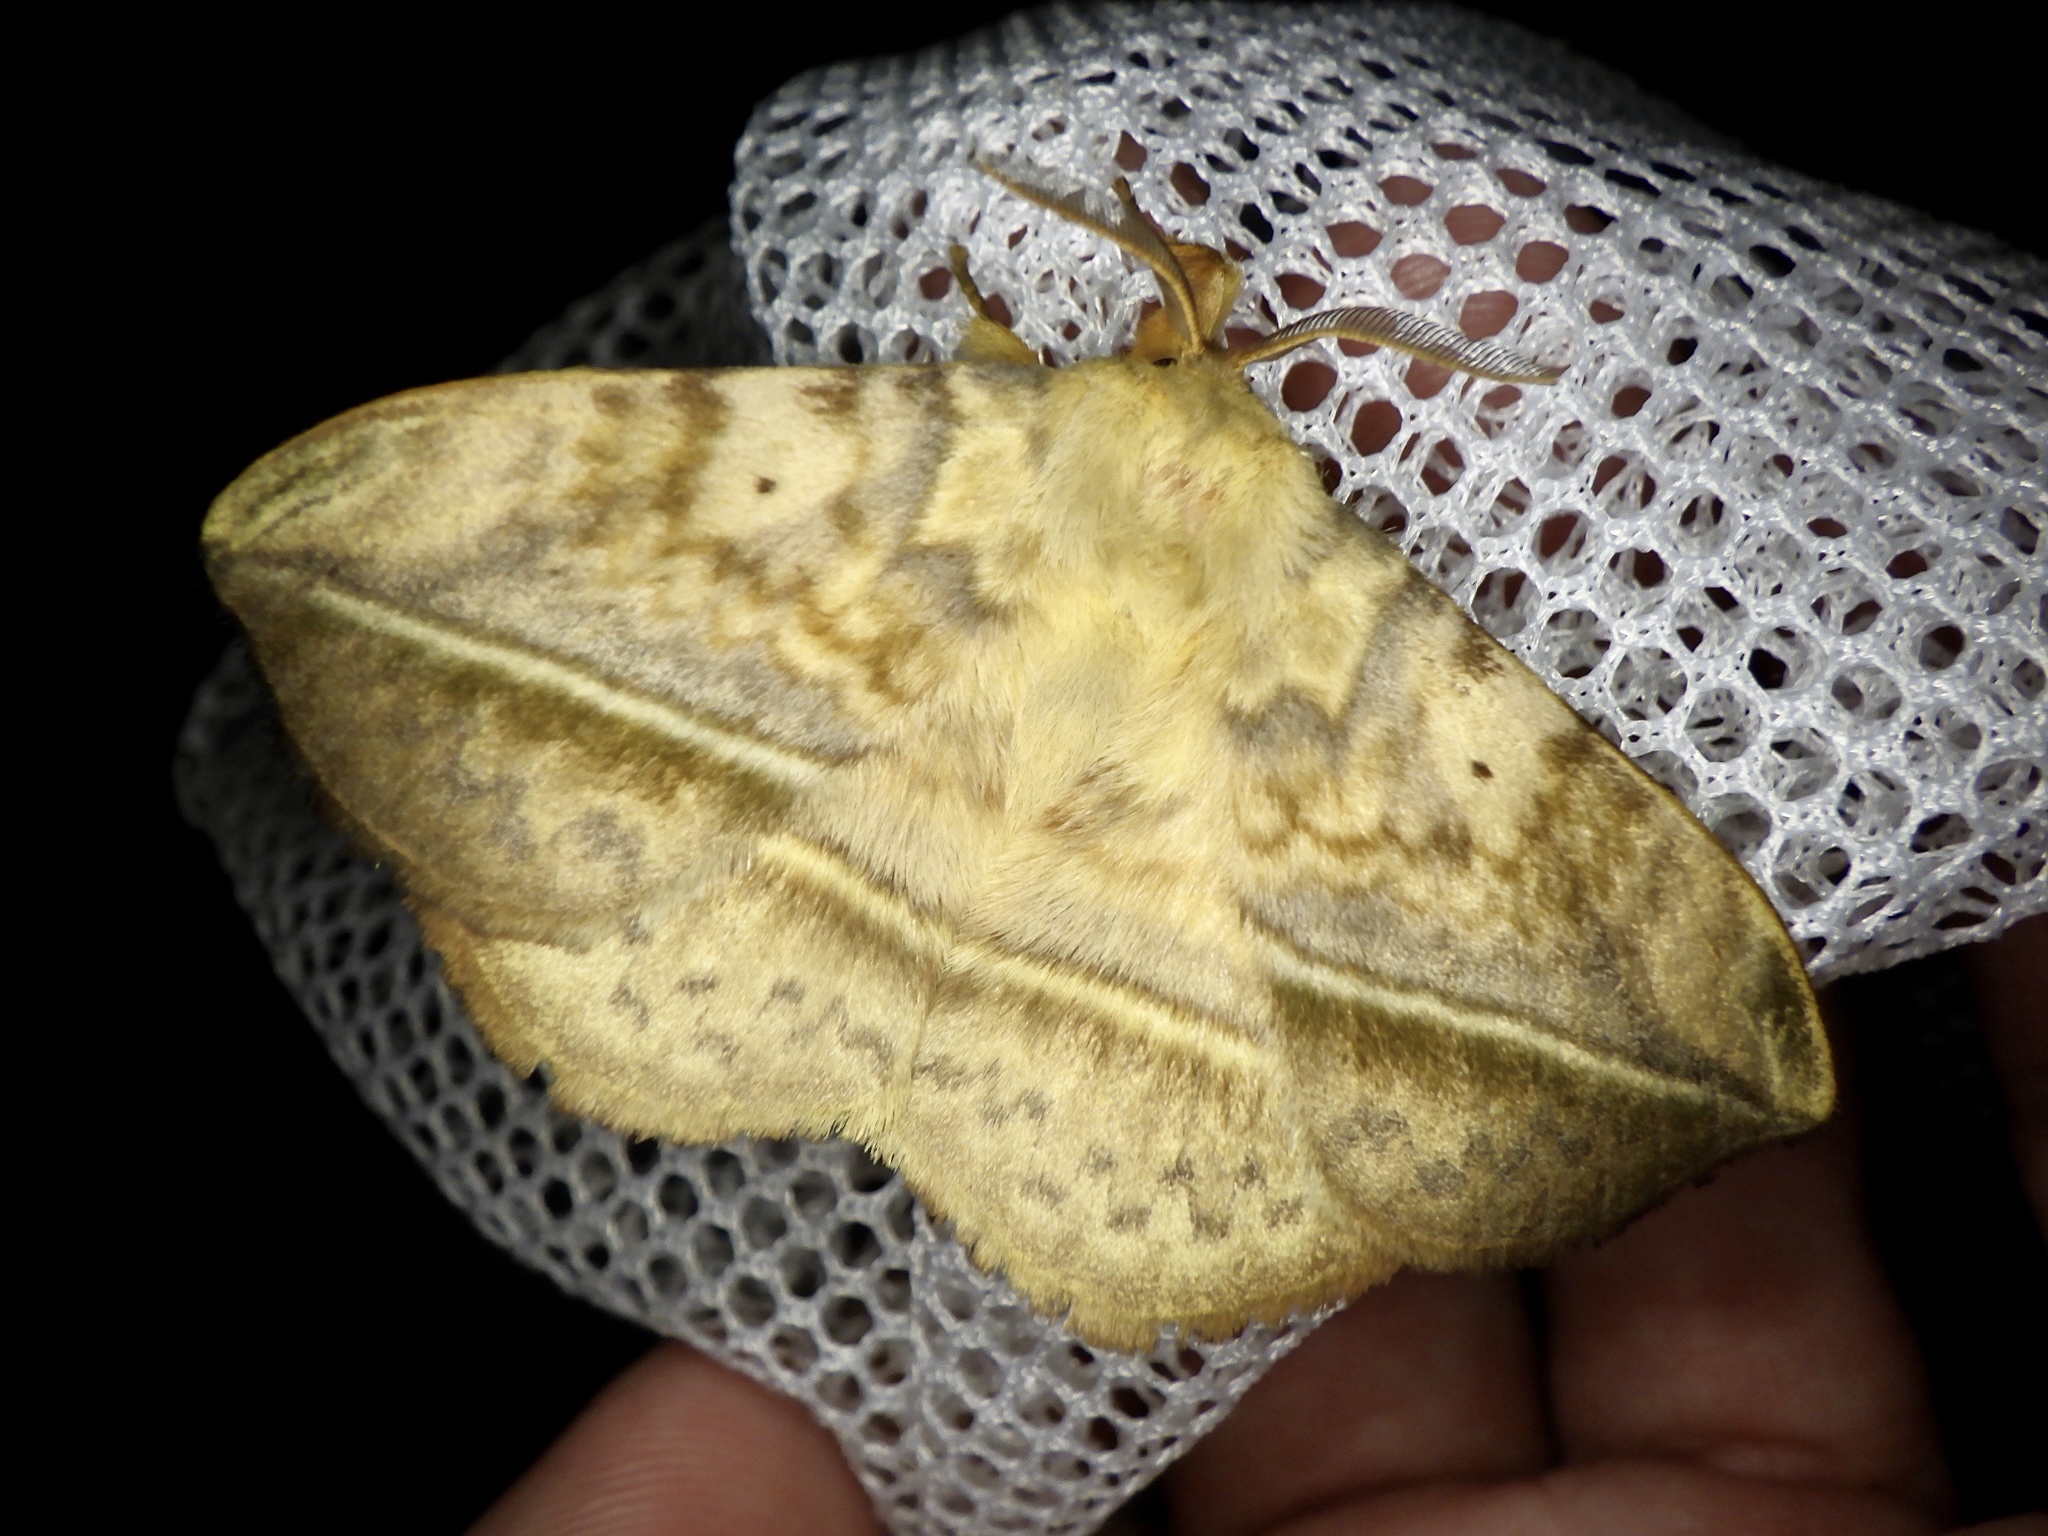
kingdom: Animalia
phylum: Arthropoda
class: Insecta
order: Lepidoptera
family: Eupterotidae
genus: Apha
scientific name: Apha aequalis
